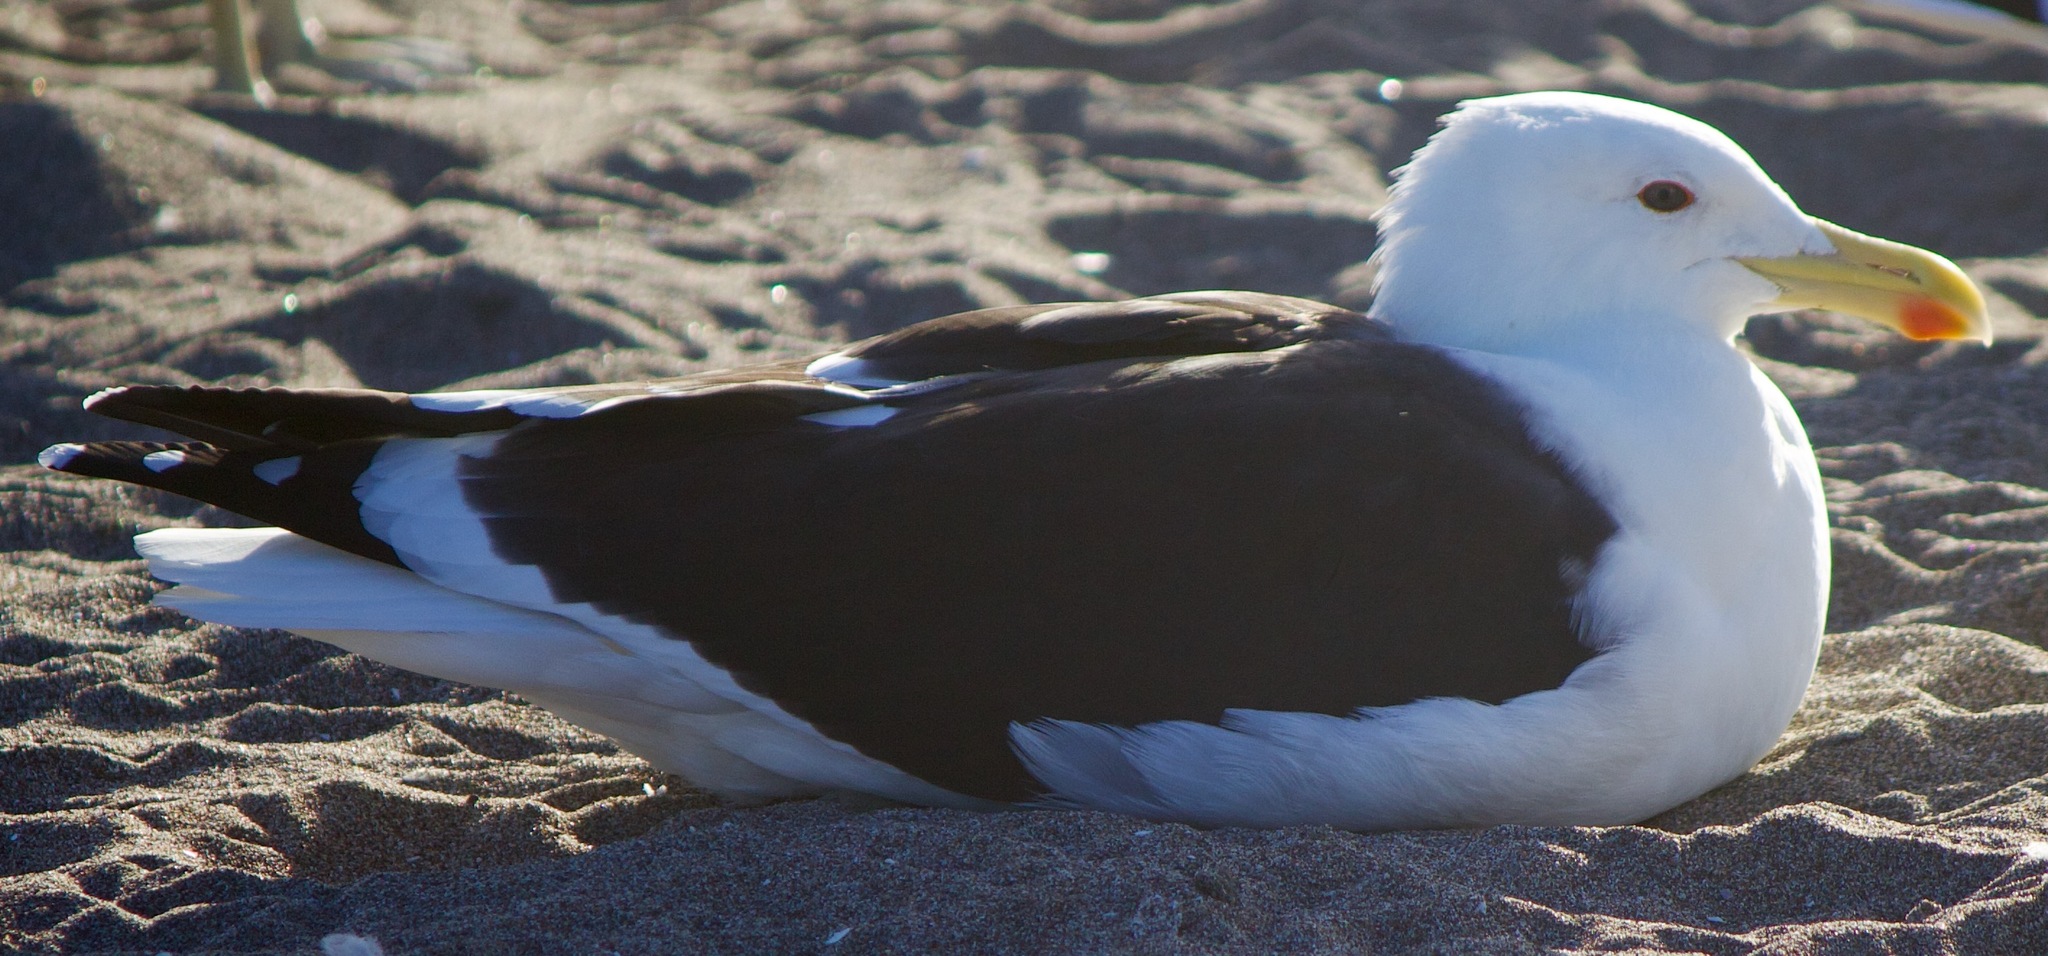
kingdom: Animalia
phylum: Chordata
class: Aves
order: Charadriiformes
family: Laridae
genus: Larus
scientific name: Larus dominicanus
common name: Kelp gull
